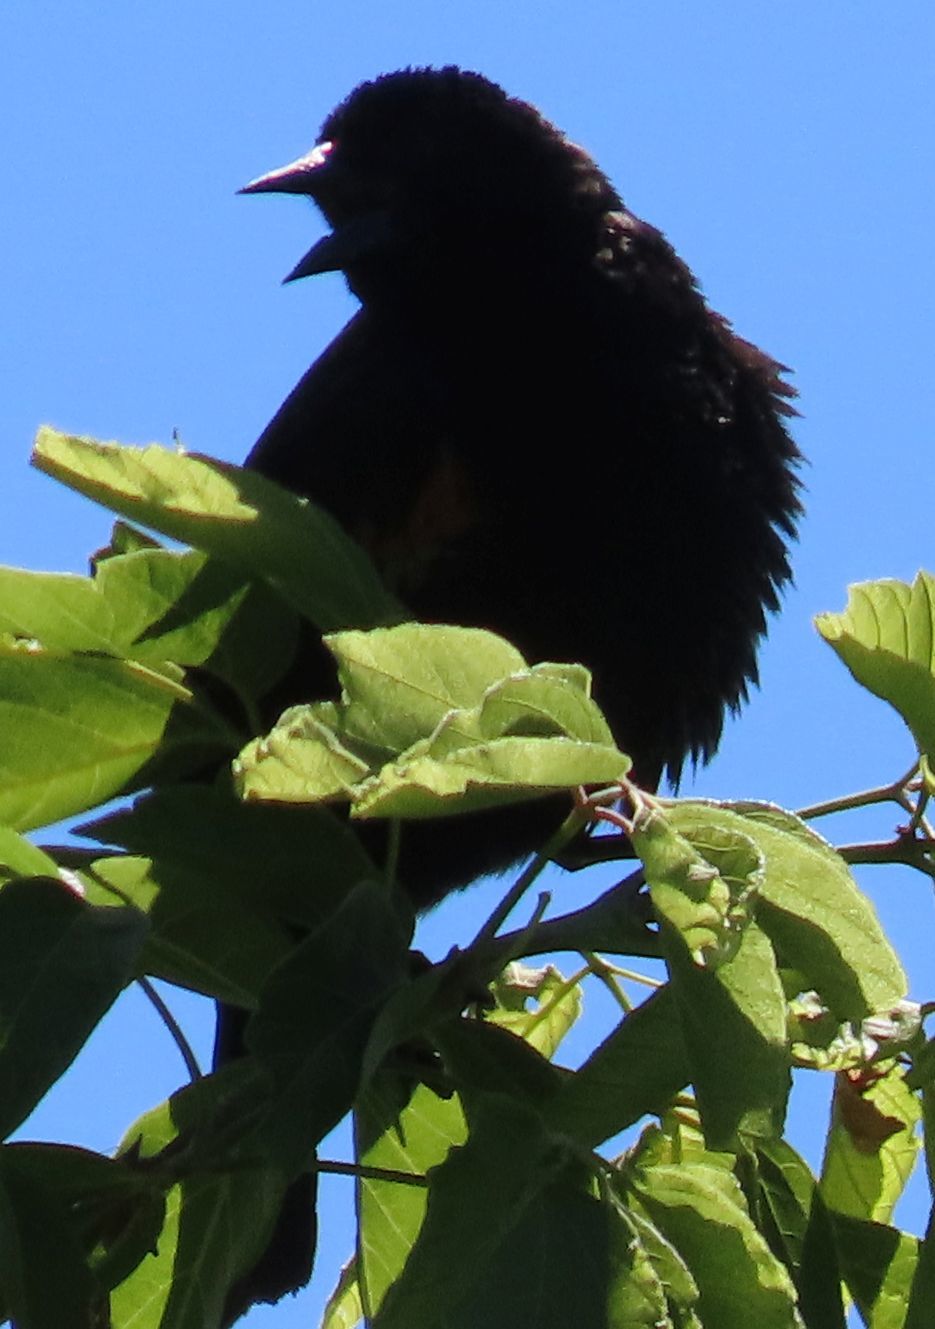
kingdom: Animalia
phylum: Chordata
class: Aves
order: Passeriformes
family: Icteridae
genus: Agelaius
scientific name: Agelaius phoeniceus
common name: Red-winged blackbird
